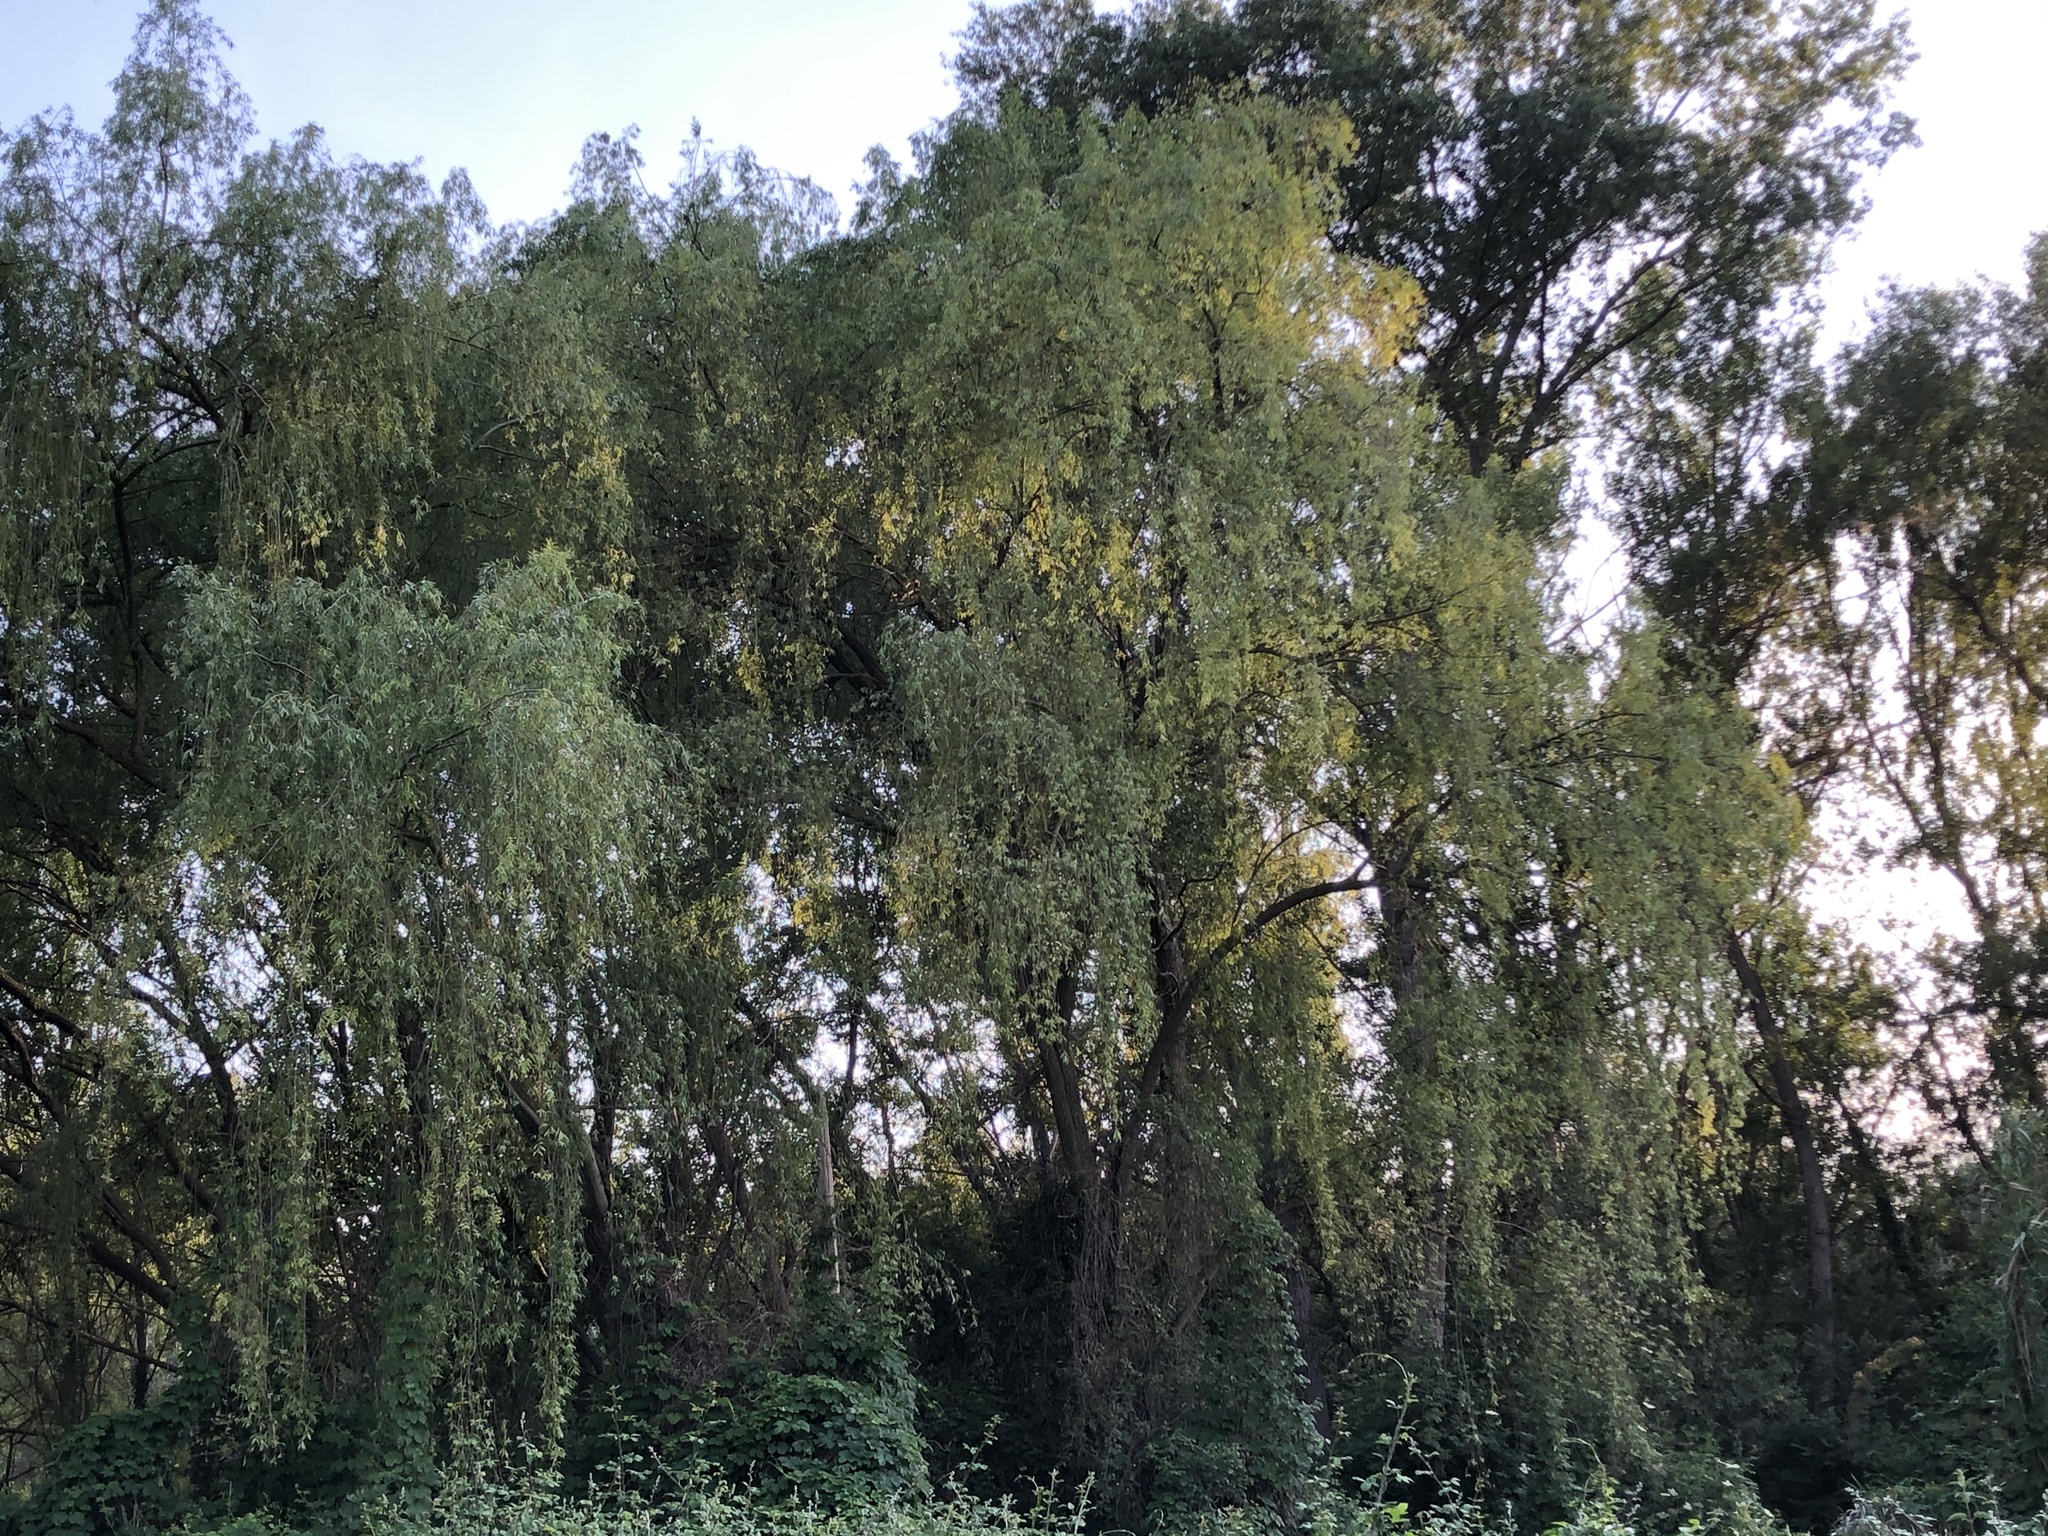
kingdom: Plantae
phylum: Tracheophyta
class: Magnoliopsida
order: Malpighiales
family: Salicaceae
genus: Salix
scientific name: Salix babylonica
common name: Weeping willow
